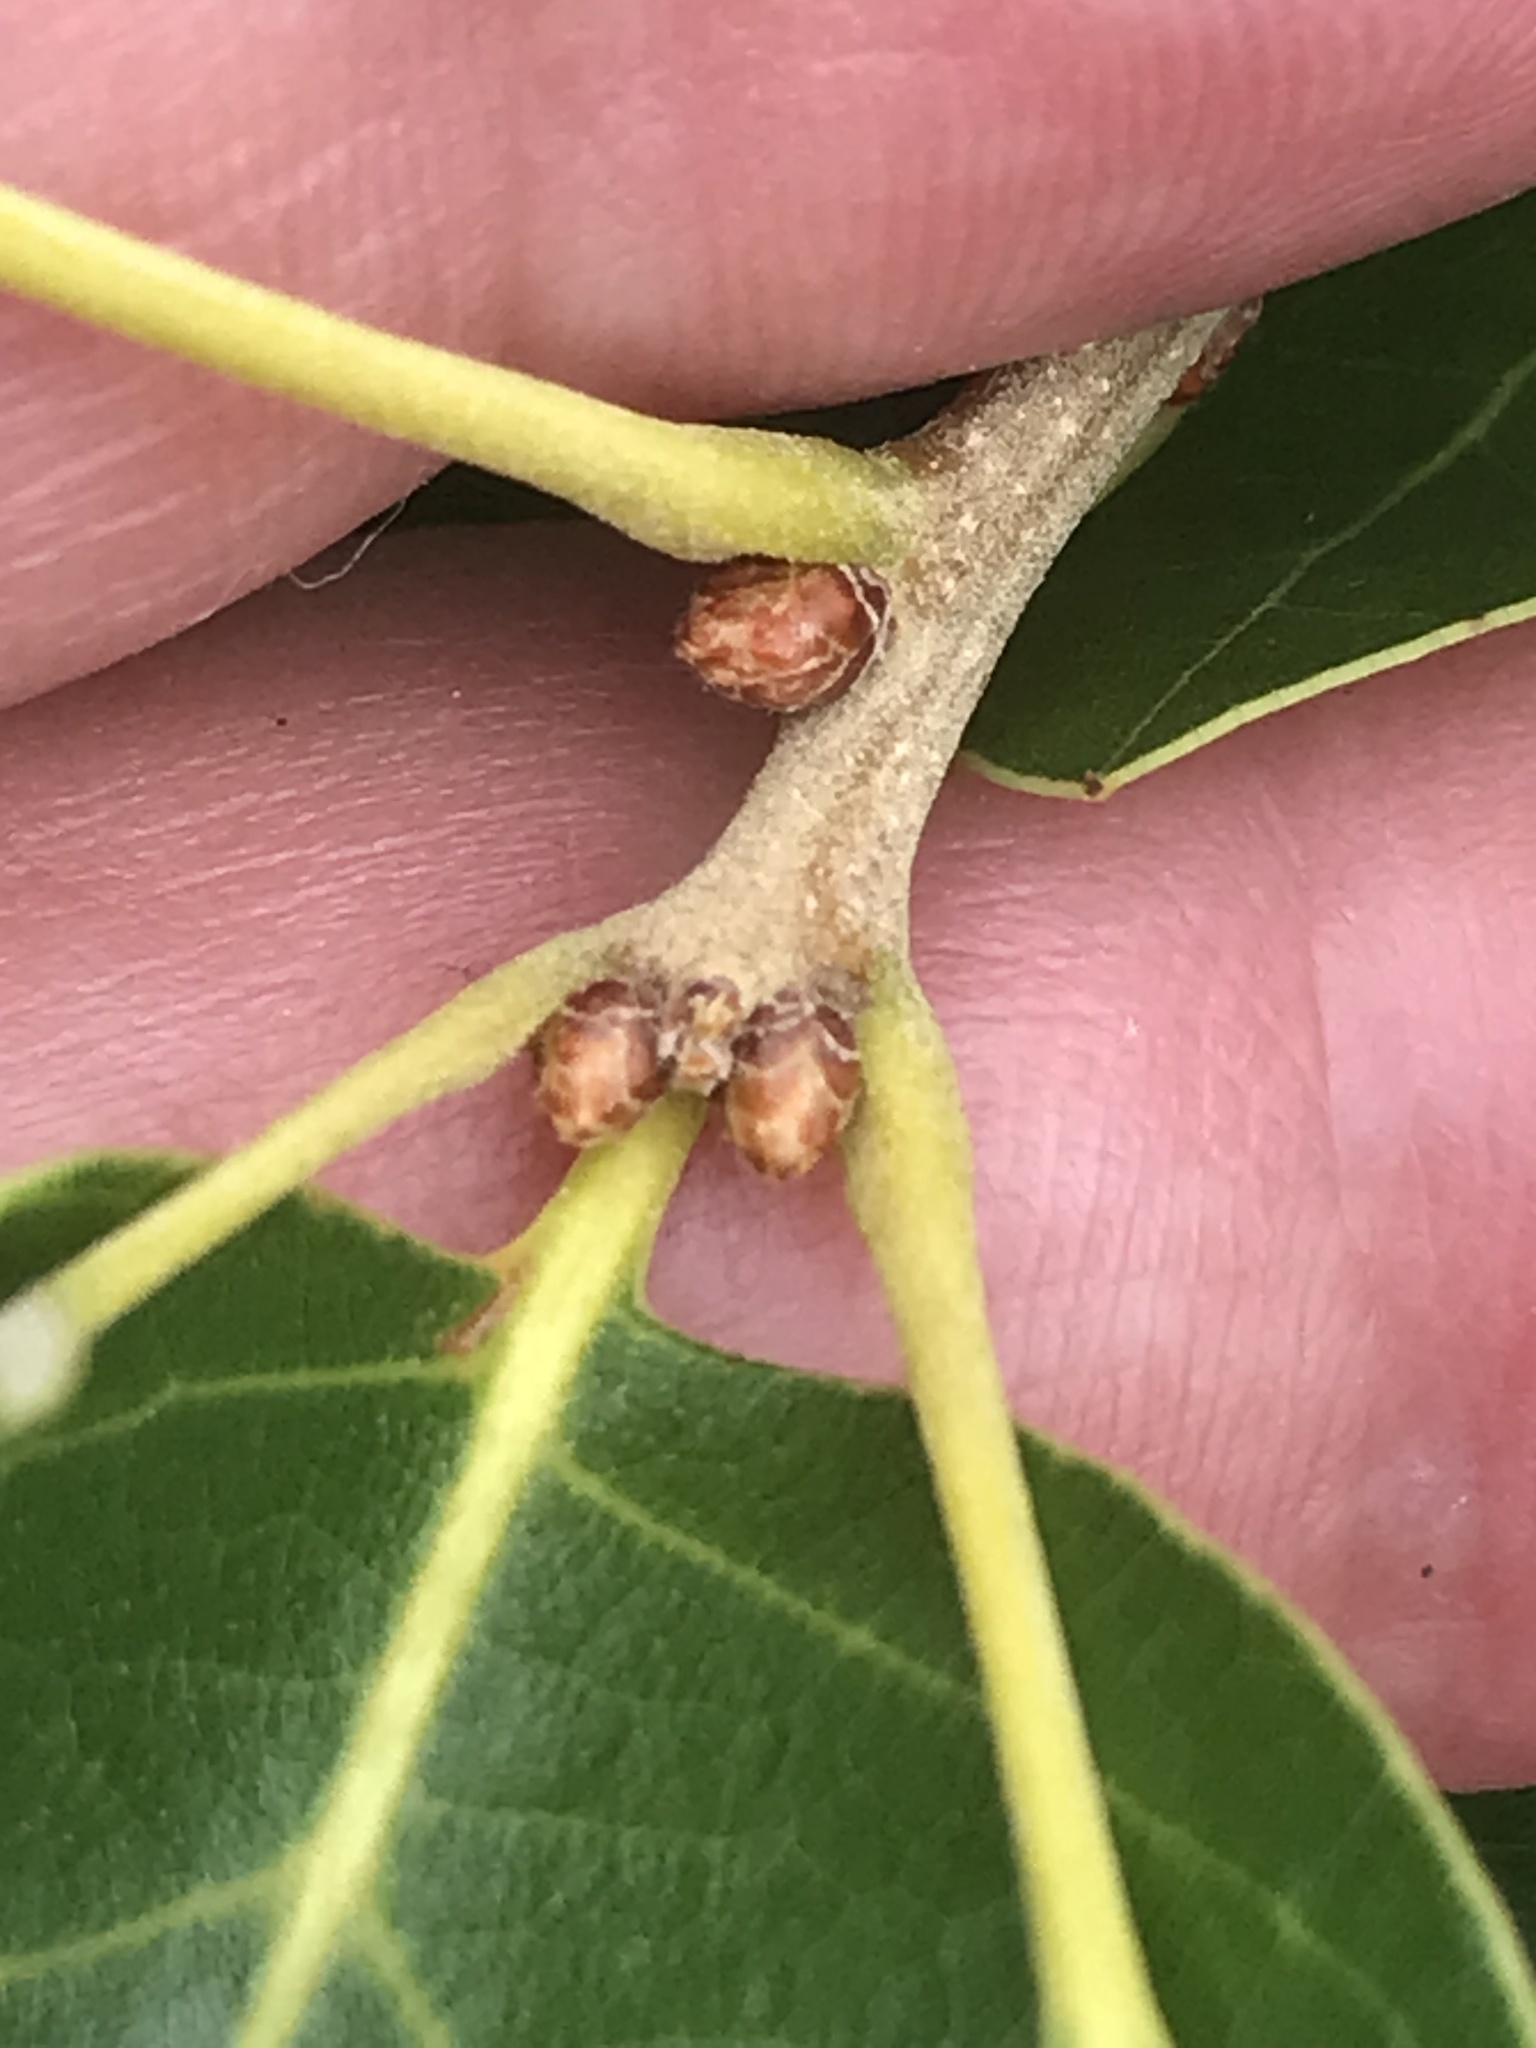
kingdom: Plantae
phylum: Tracheophyta
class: Magnoliopsida
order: Fagales
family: Fagaceae
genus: Quercus
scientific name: Quercus ilicifolia
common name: Bear oak
